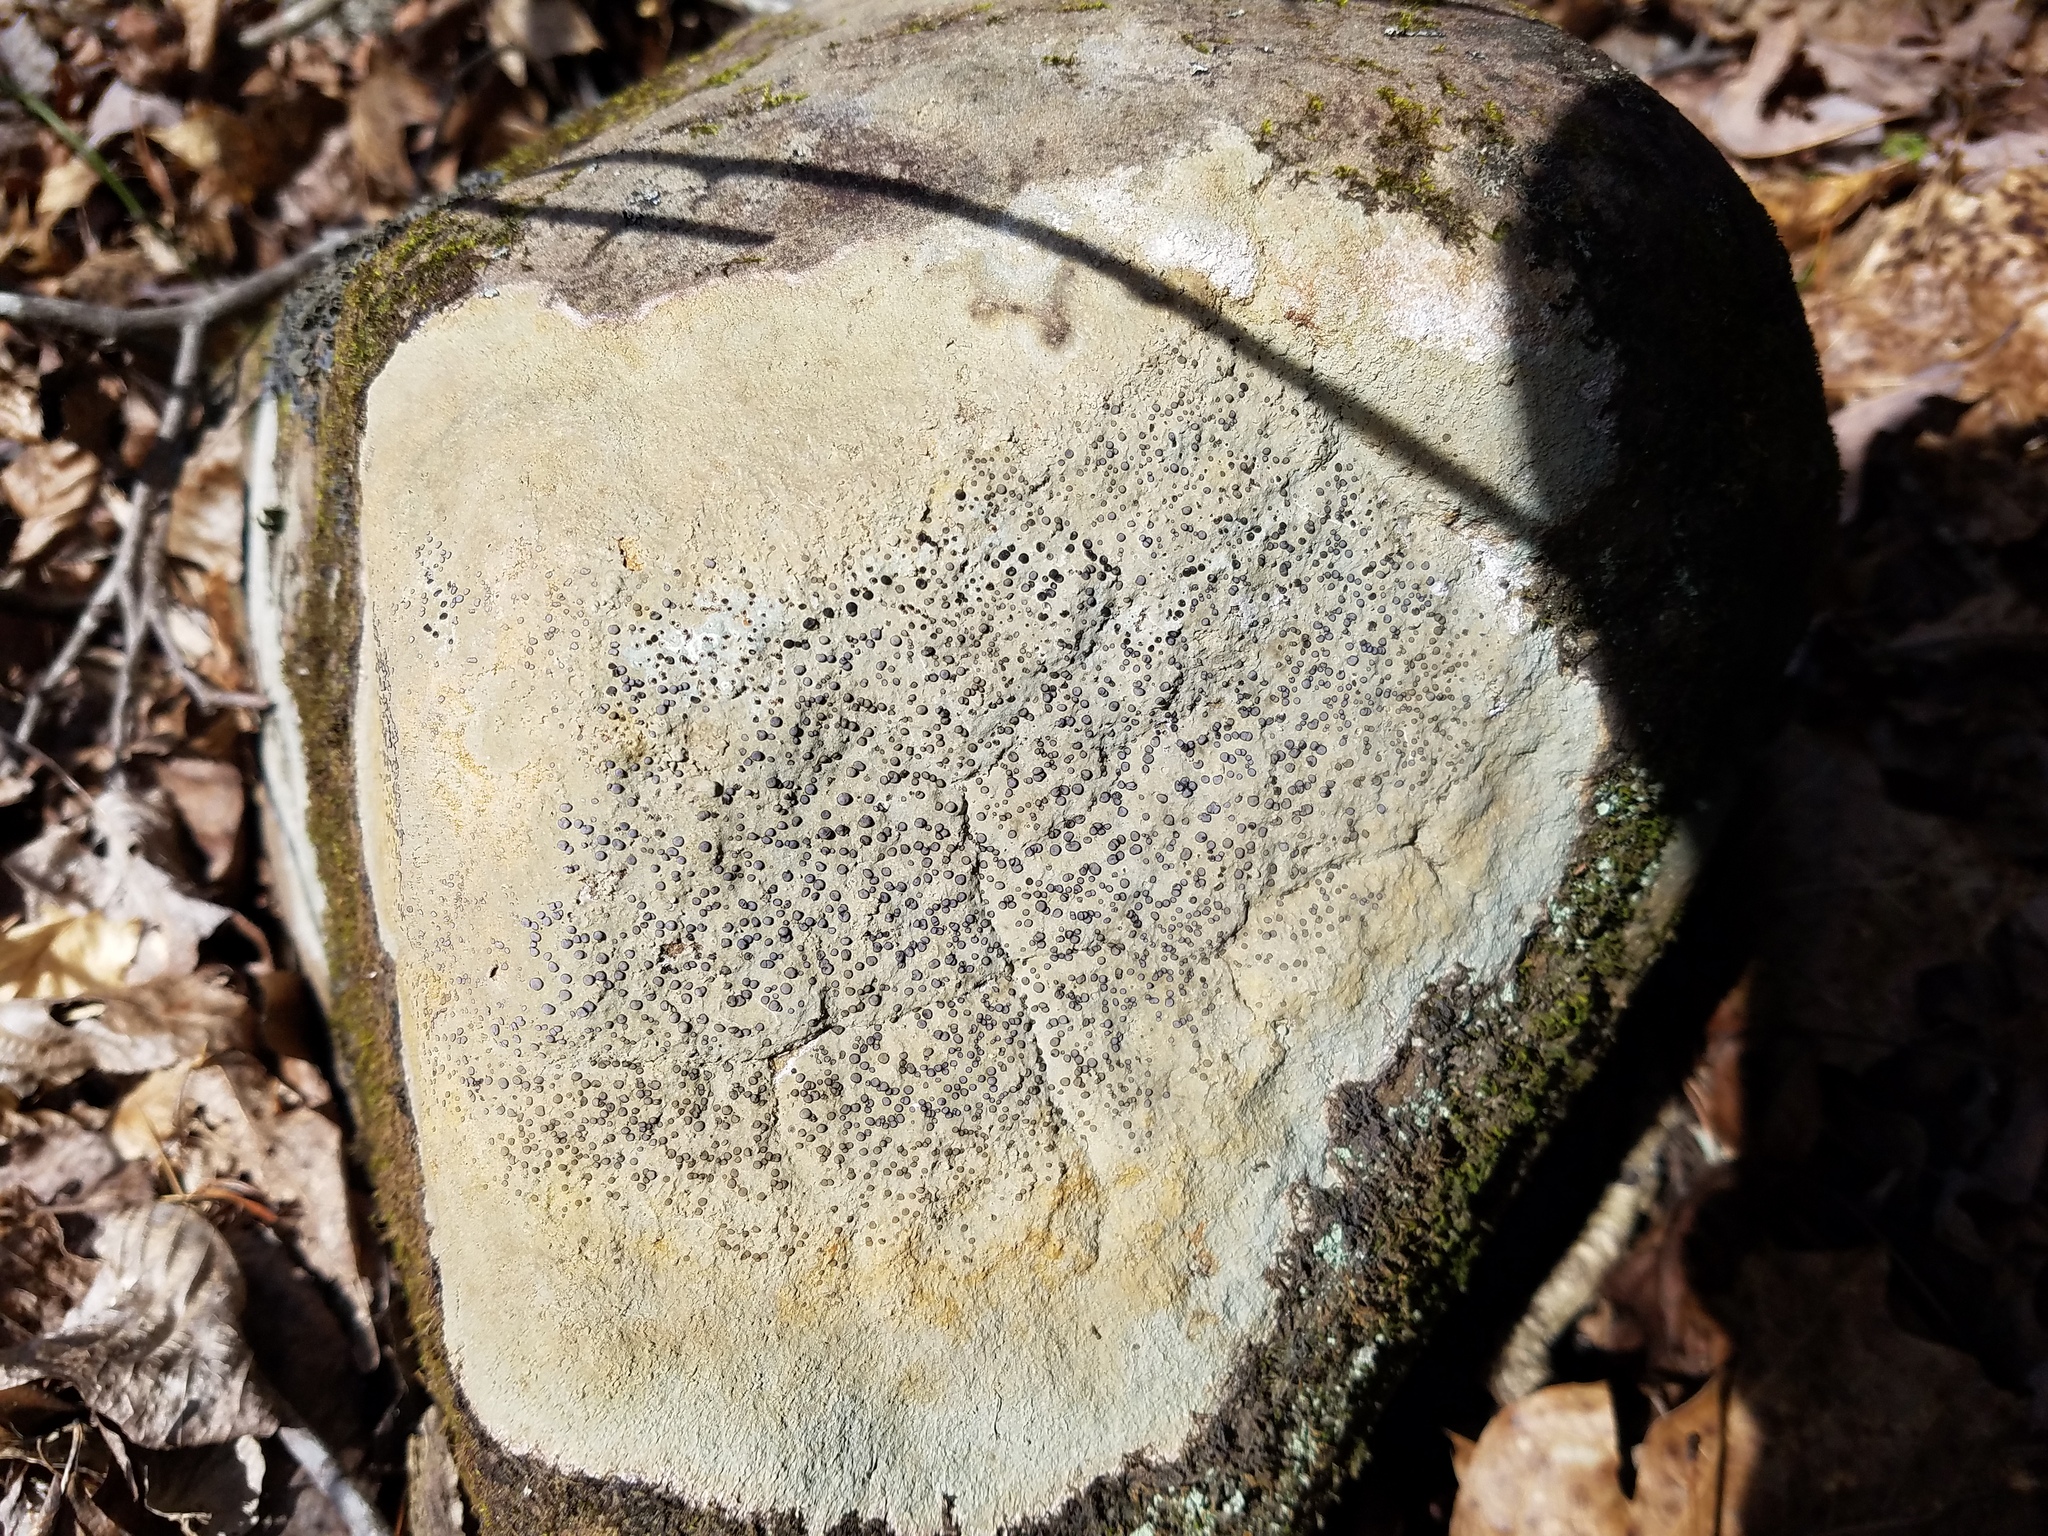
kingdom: Fungi
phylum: Ascomycota
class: Lecanoromycetes
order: Lecideales
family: Lecideaceae
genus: Porpidia
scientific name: Porpidia albocaerulescens
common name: Smokey-eyed boulder lichen
